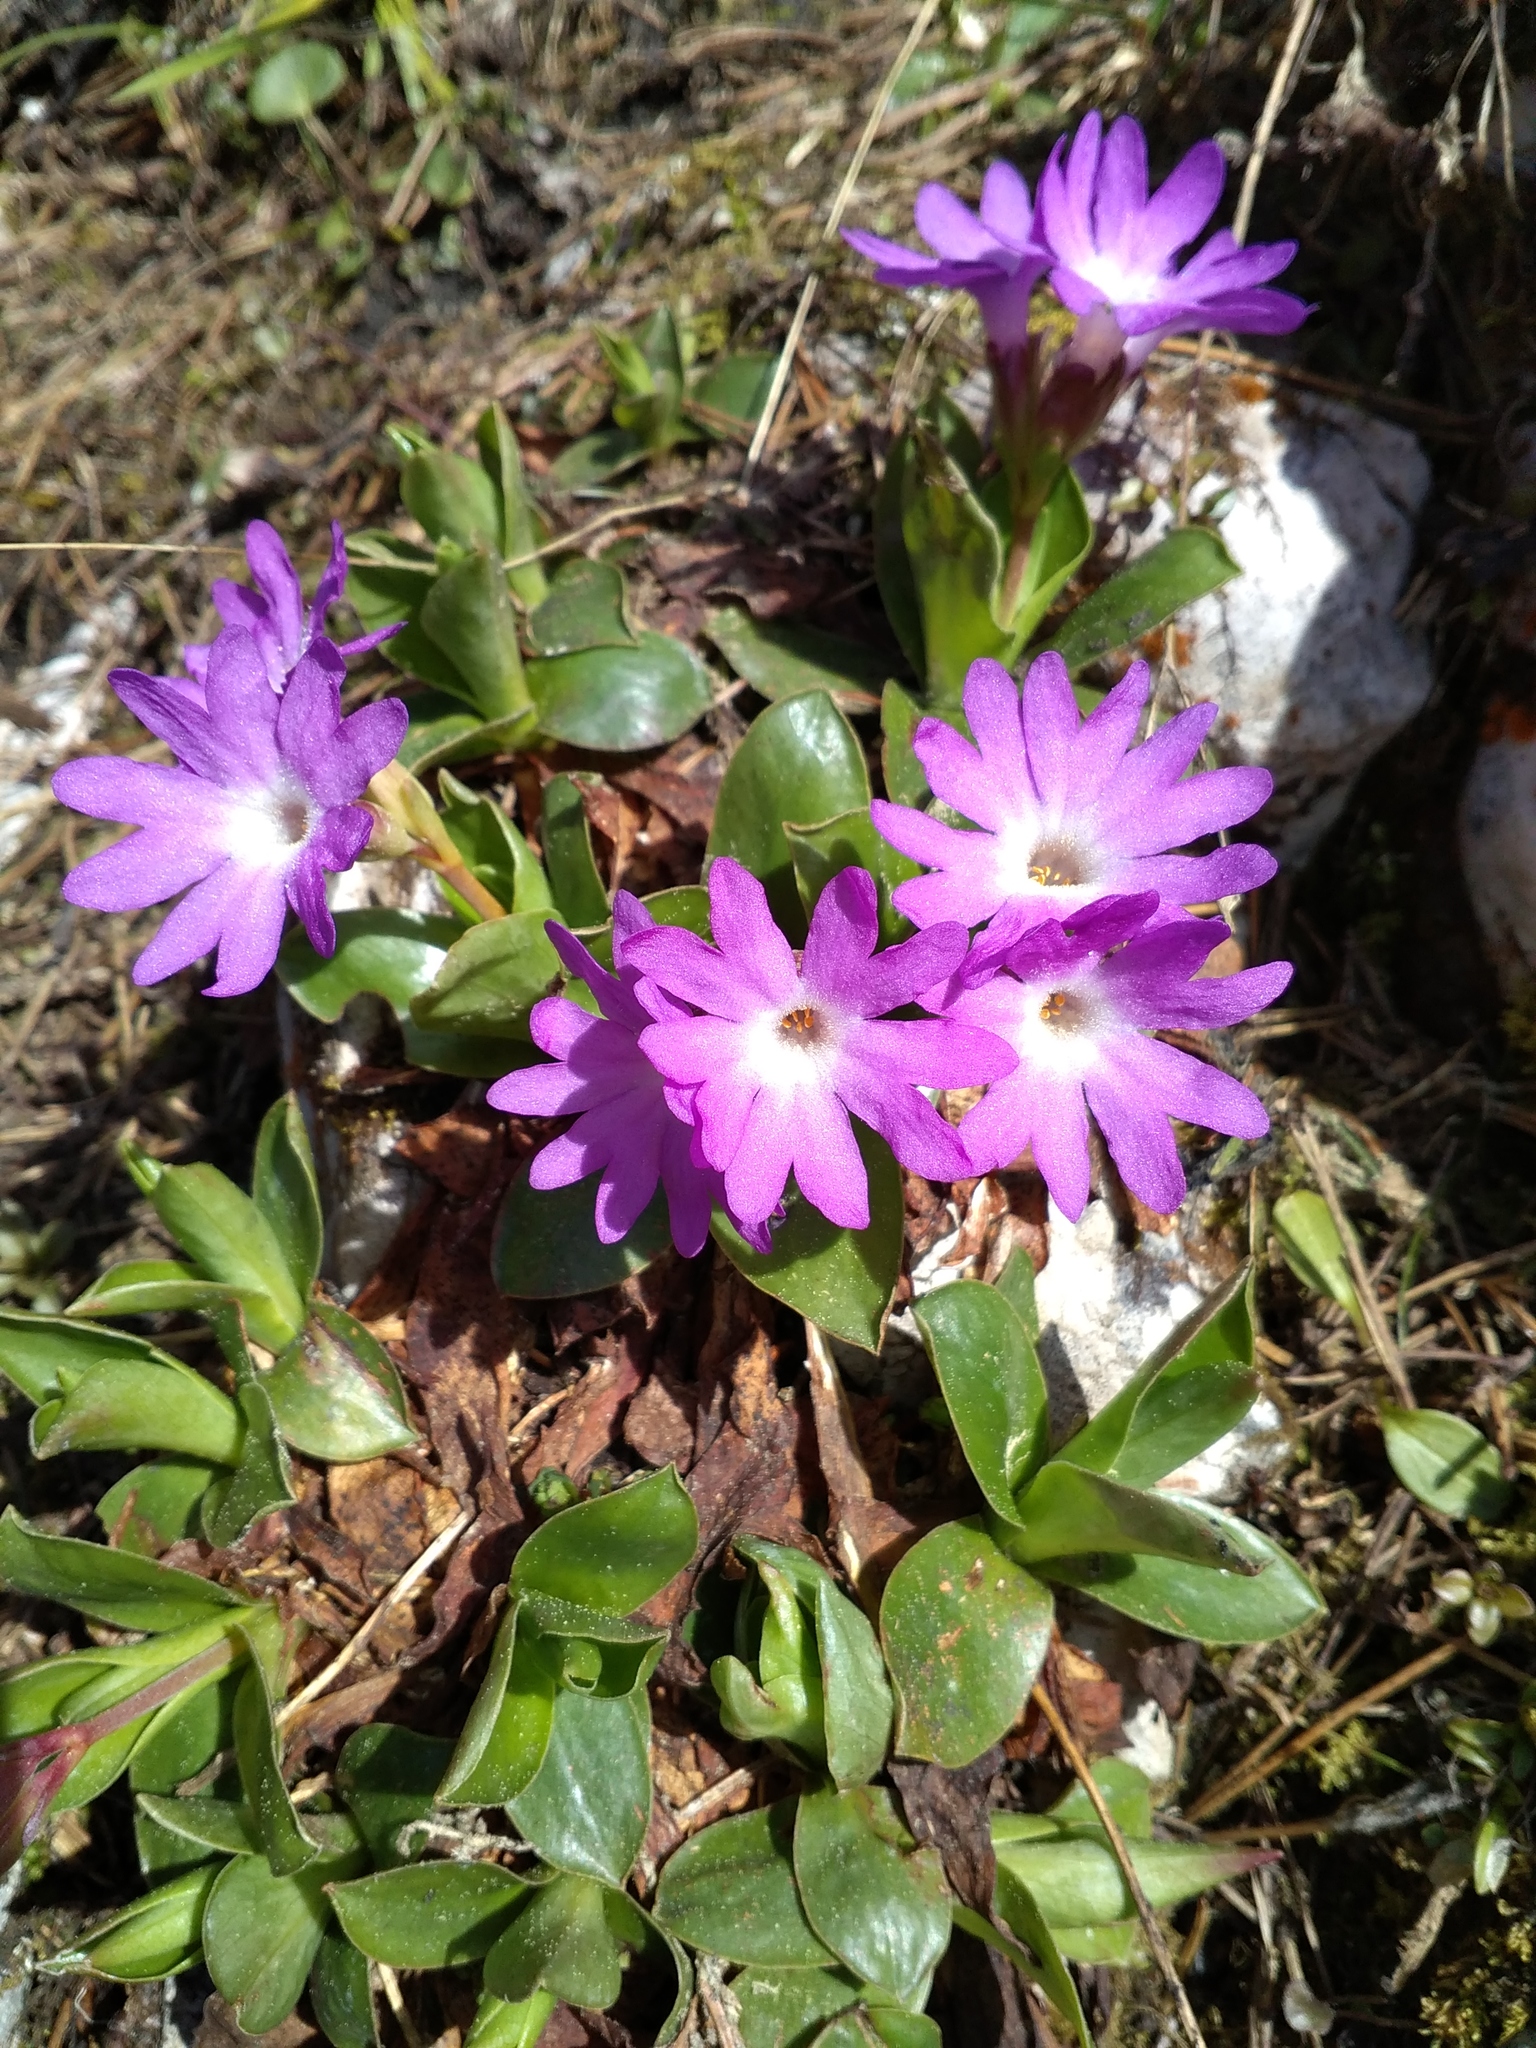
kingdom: Plantae
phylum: Tracheophyta
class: Magnoliopsida
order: Ericales
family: Primulaceae
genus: Primula
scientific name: Primula clusiana
